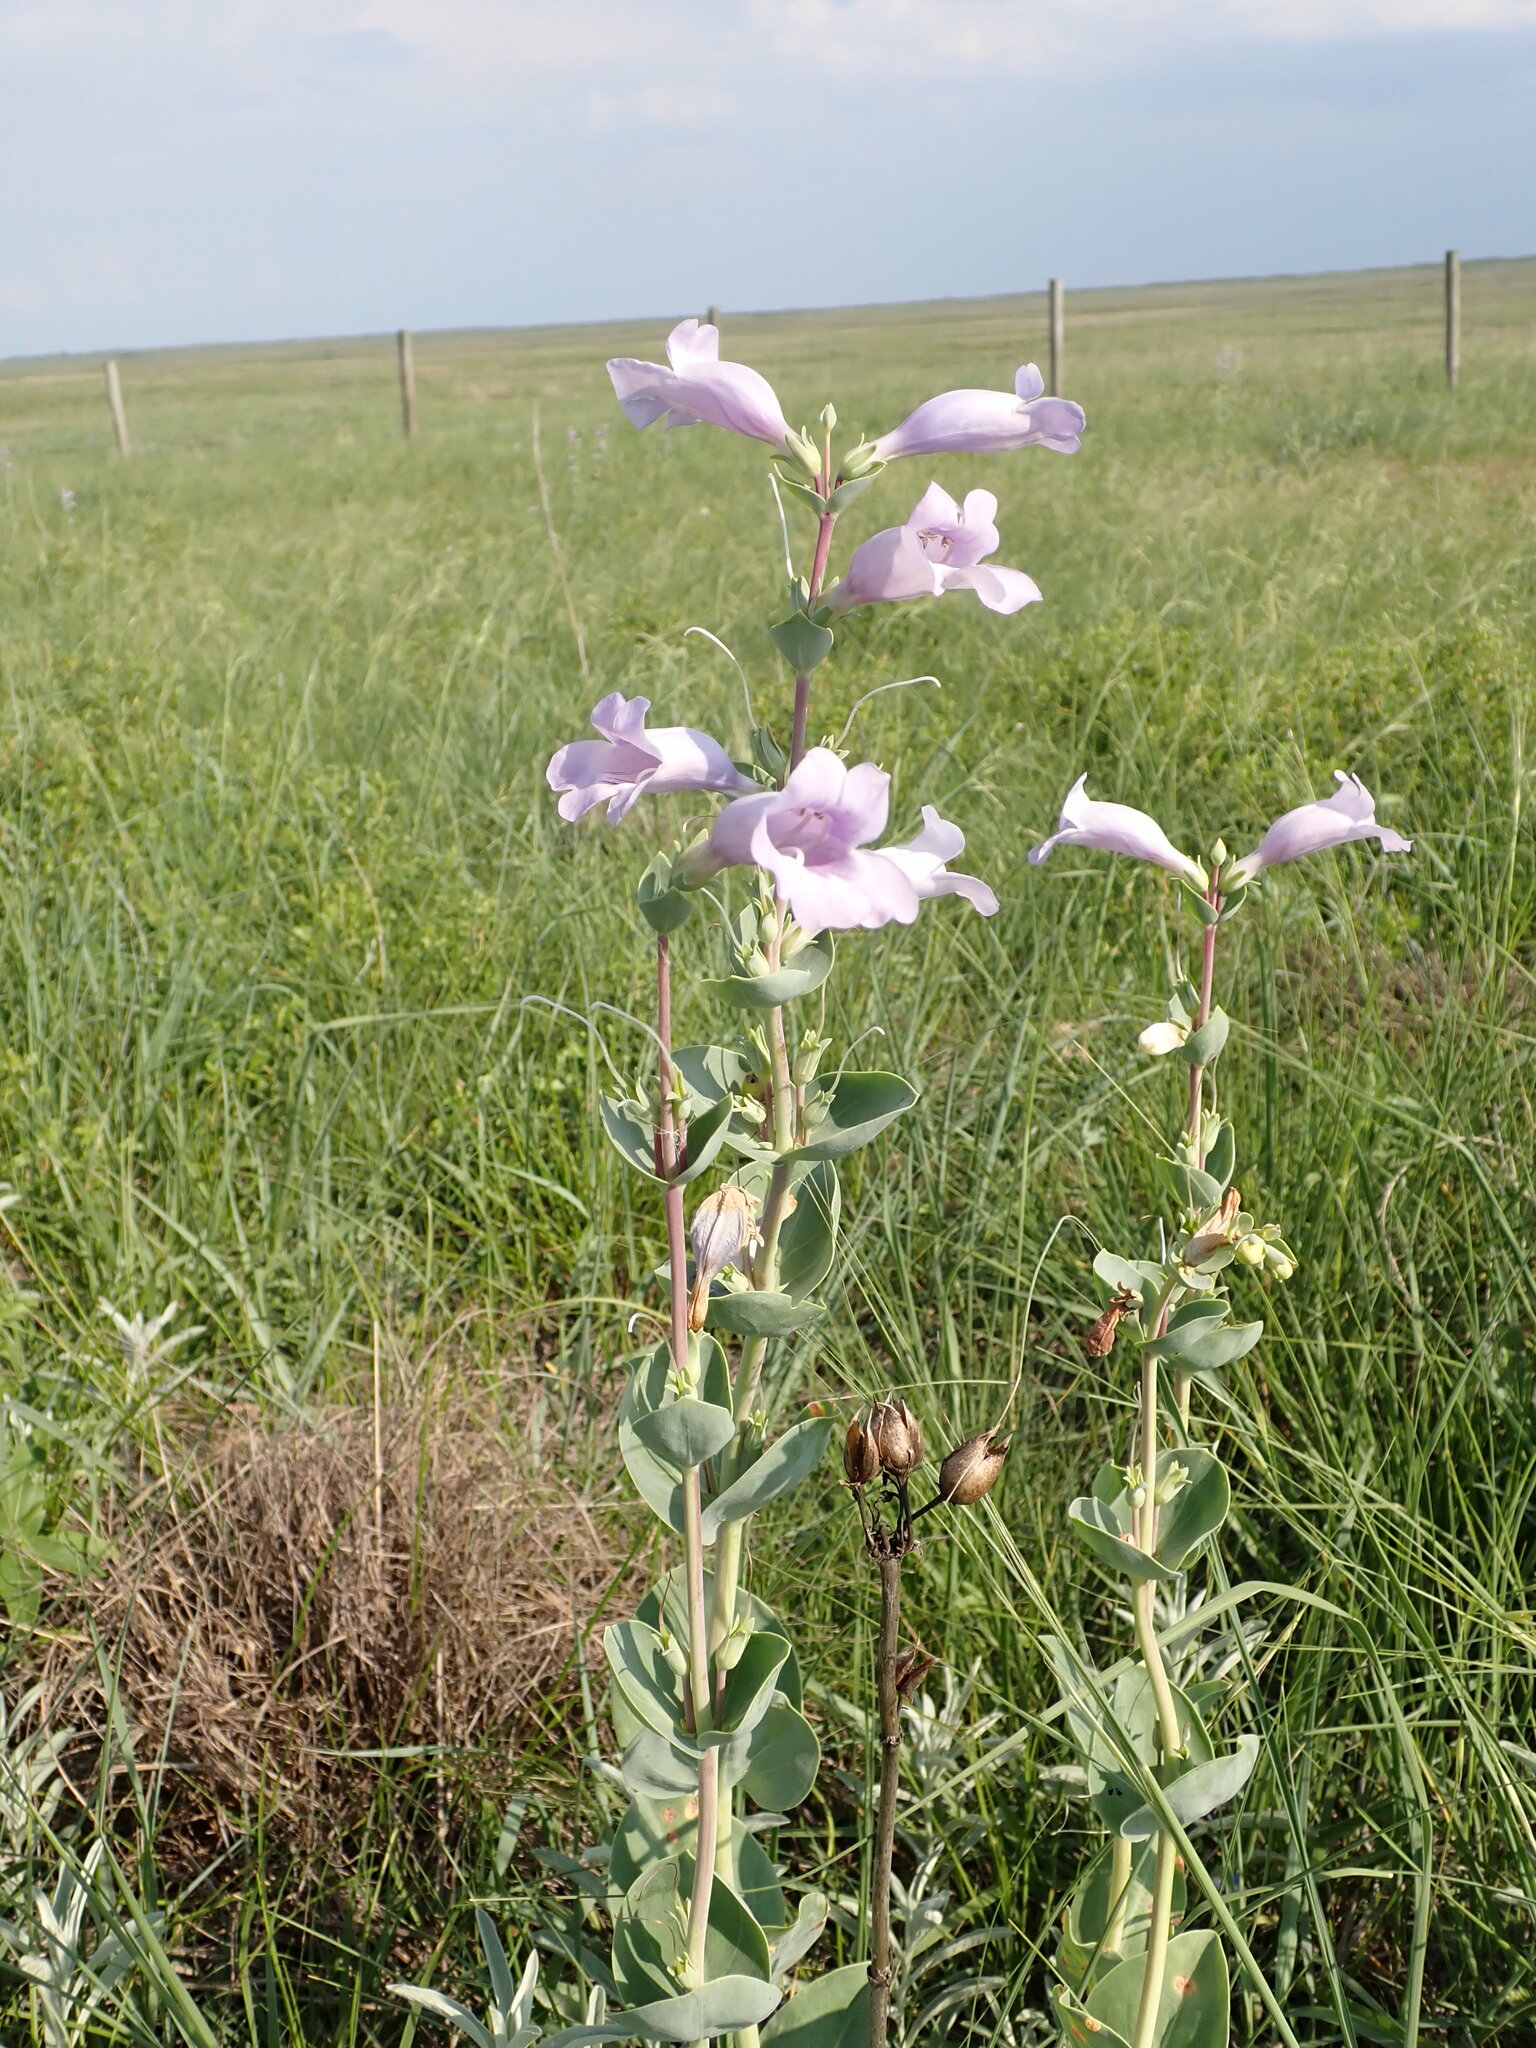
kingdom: Plantae
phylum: Tracheophyta
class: Magnoliopsida
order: Lamiales
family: Plantaginaceae
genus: Penstemon
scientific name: Penstemon
